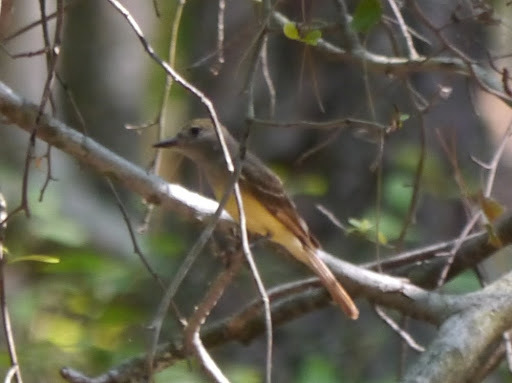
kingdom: Animalia
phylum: Chordata
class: Aves
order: Passeriformes
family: Tyrannidae
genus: Myiarchus
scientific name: Myiarchus crinitus
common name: Great crested flycatcher
